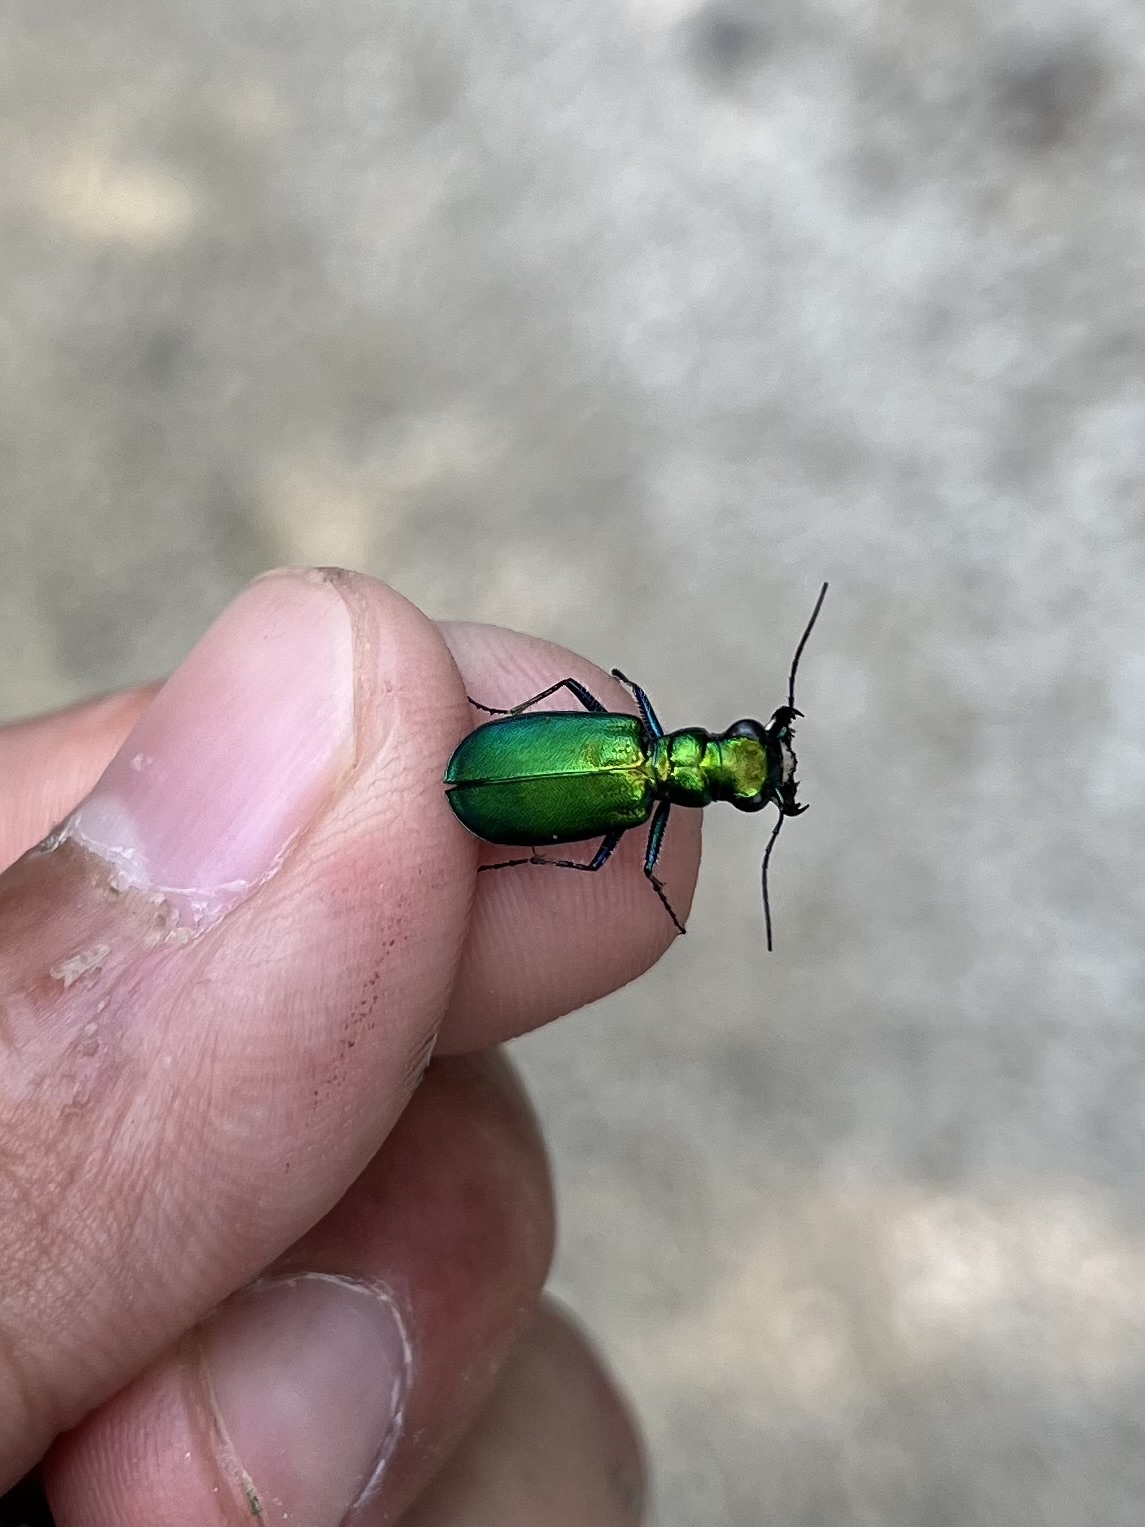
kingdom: Animalia
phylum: Arthropoda
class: Insecta
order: Coleoptera
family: Carabidae
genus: Cicindela
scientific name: Cicindela sexguttata
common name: Six-spotted tiger beetle
